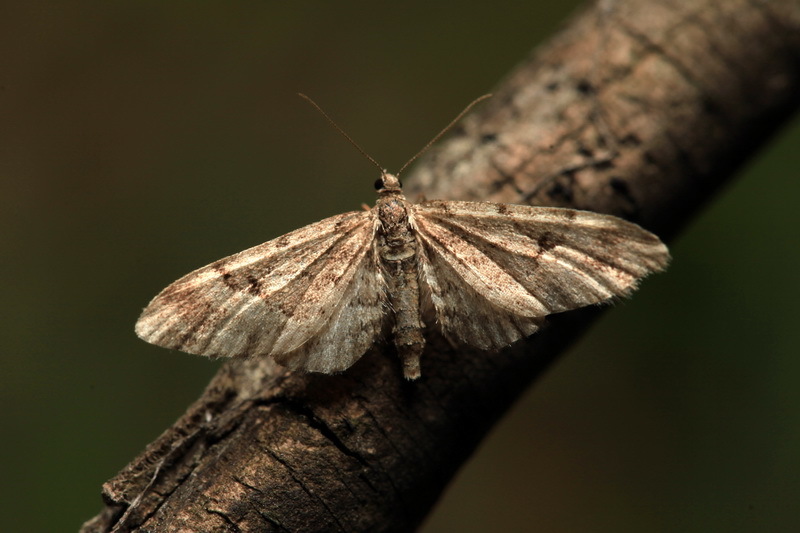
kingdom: Animalia
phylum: Arthropoda
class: Insecta
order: Lepidoptera
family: Geometridae
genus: Eupithecia
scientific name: Eupithecia lanceata
